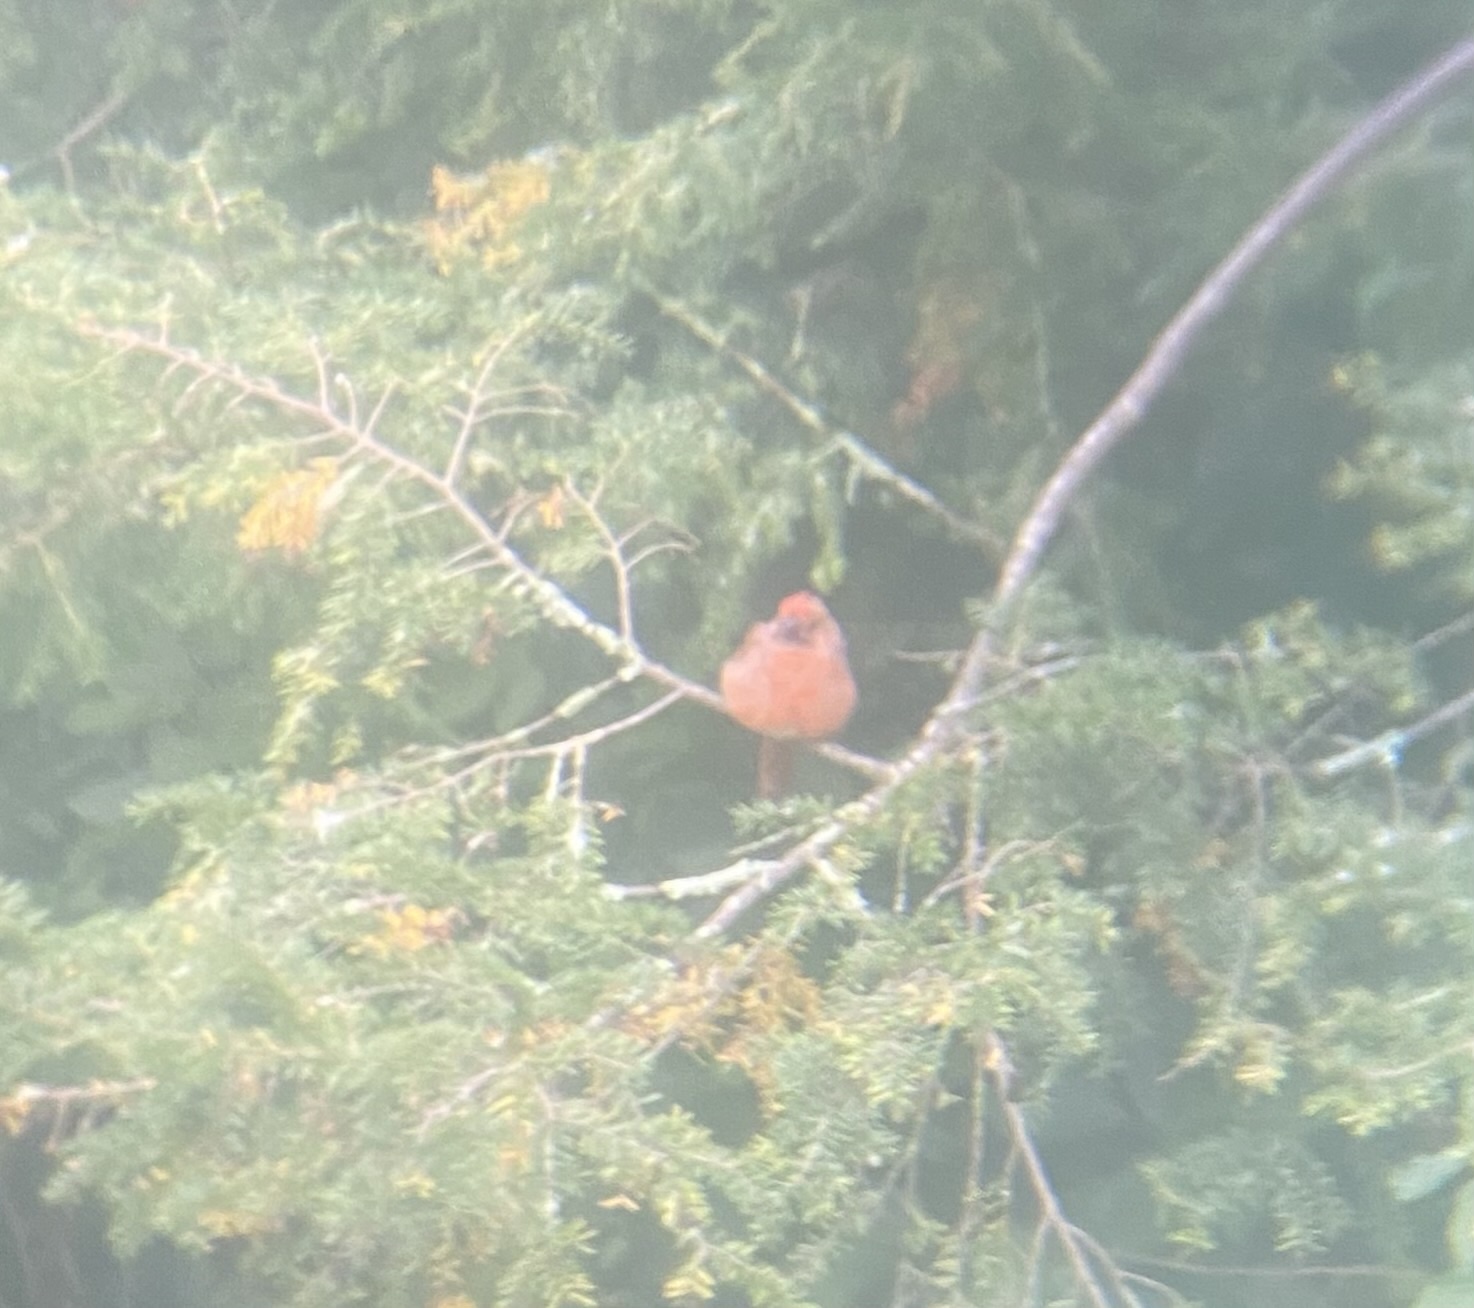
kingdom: Animalia
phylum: Chordata
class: Aves
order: Passeriformes
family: Cardinalidae
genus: Cardinalis
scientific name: Cardinalis cardinalis
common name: Northern cardinal
